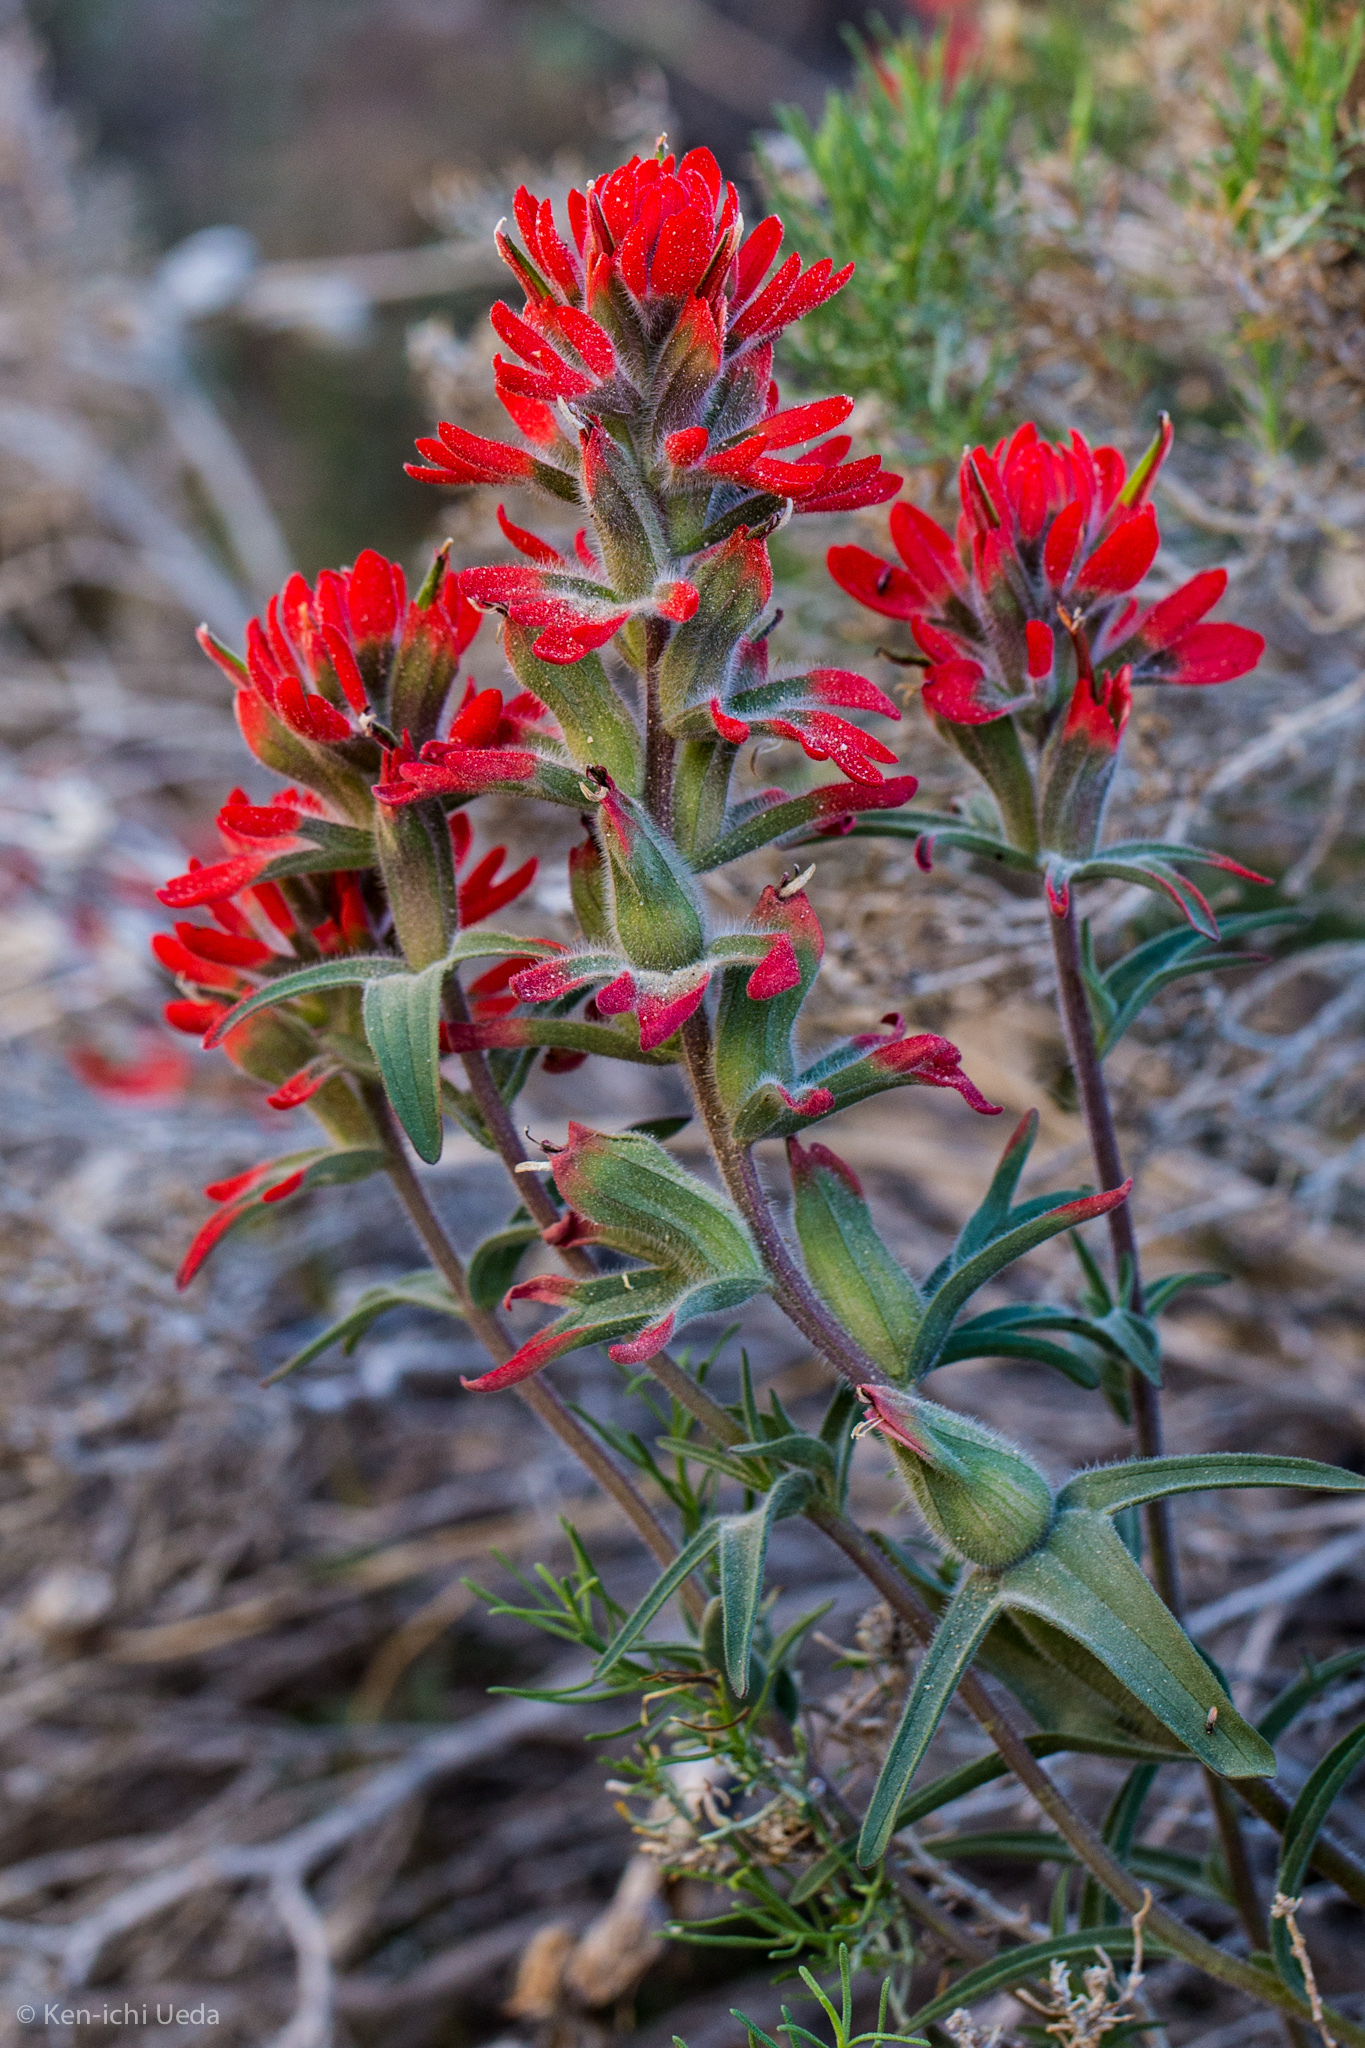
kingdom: Plantae
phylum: Tracheophyta
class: Magnoliopsida
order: Lamiales
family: Orobanchaceae
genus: Castilleja
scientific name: Castilleja chromosa
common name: Desert paintbrush
